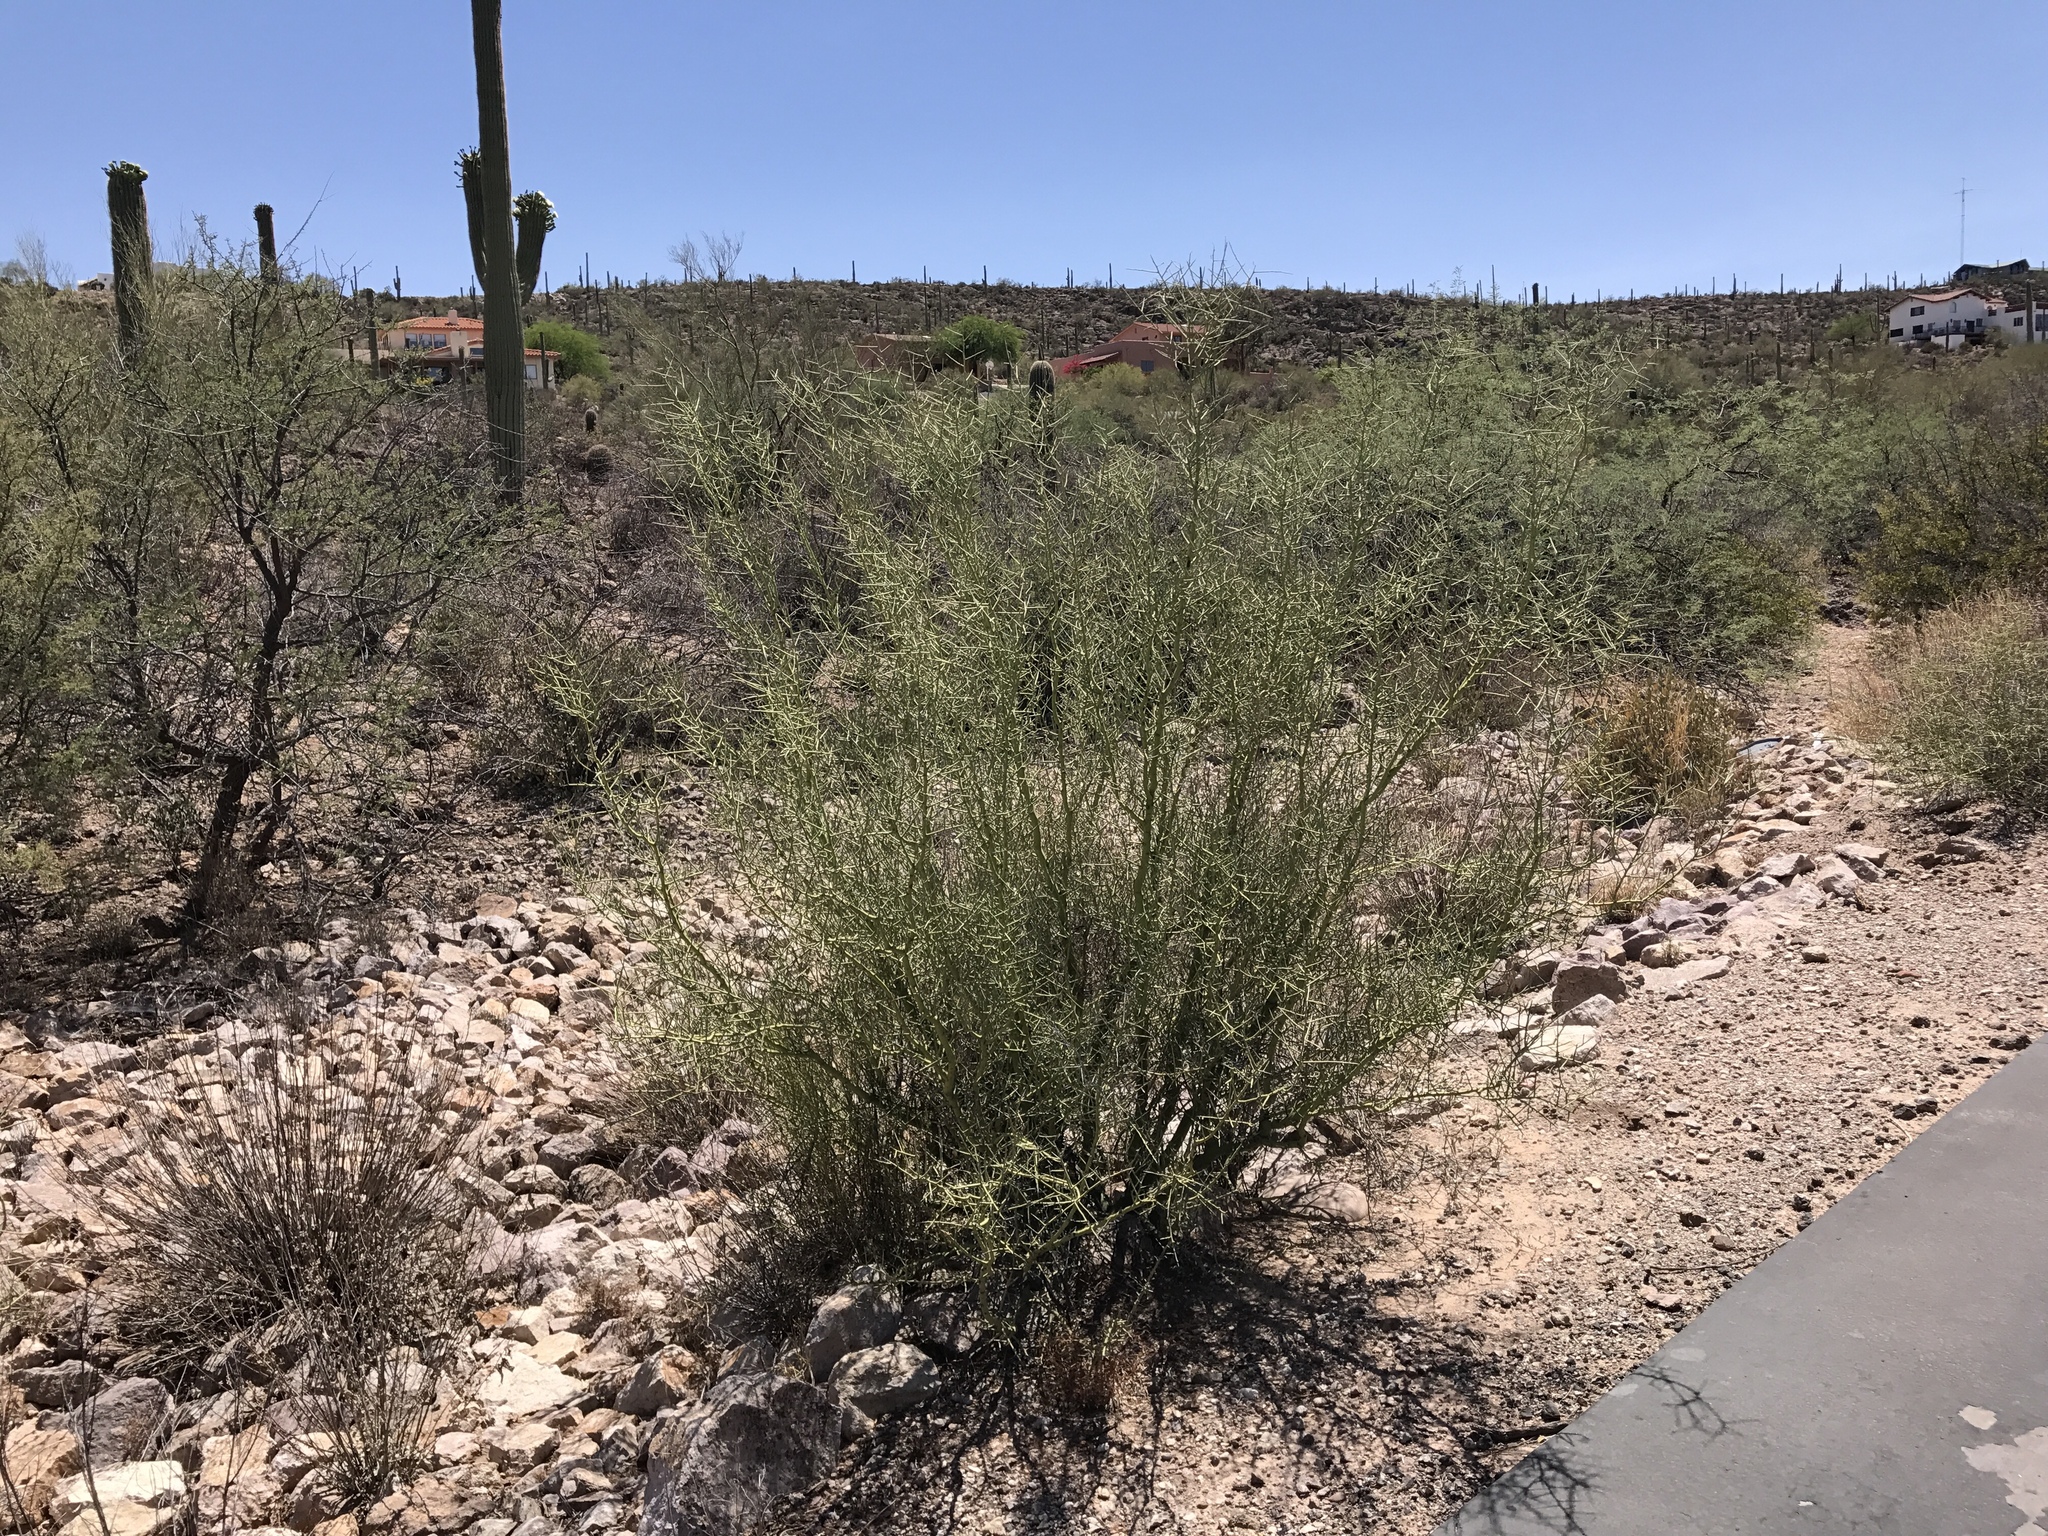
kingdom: Plantae
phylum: Tracheophyta
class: Magnoliopsida
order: Fabales
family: Fabaceae
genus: Parkinsonia
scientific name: Parkinsonia microphylla
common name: Yellow paloverde
